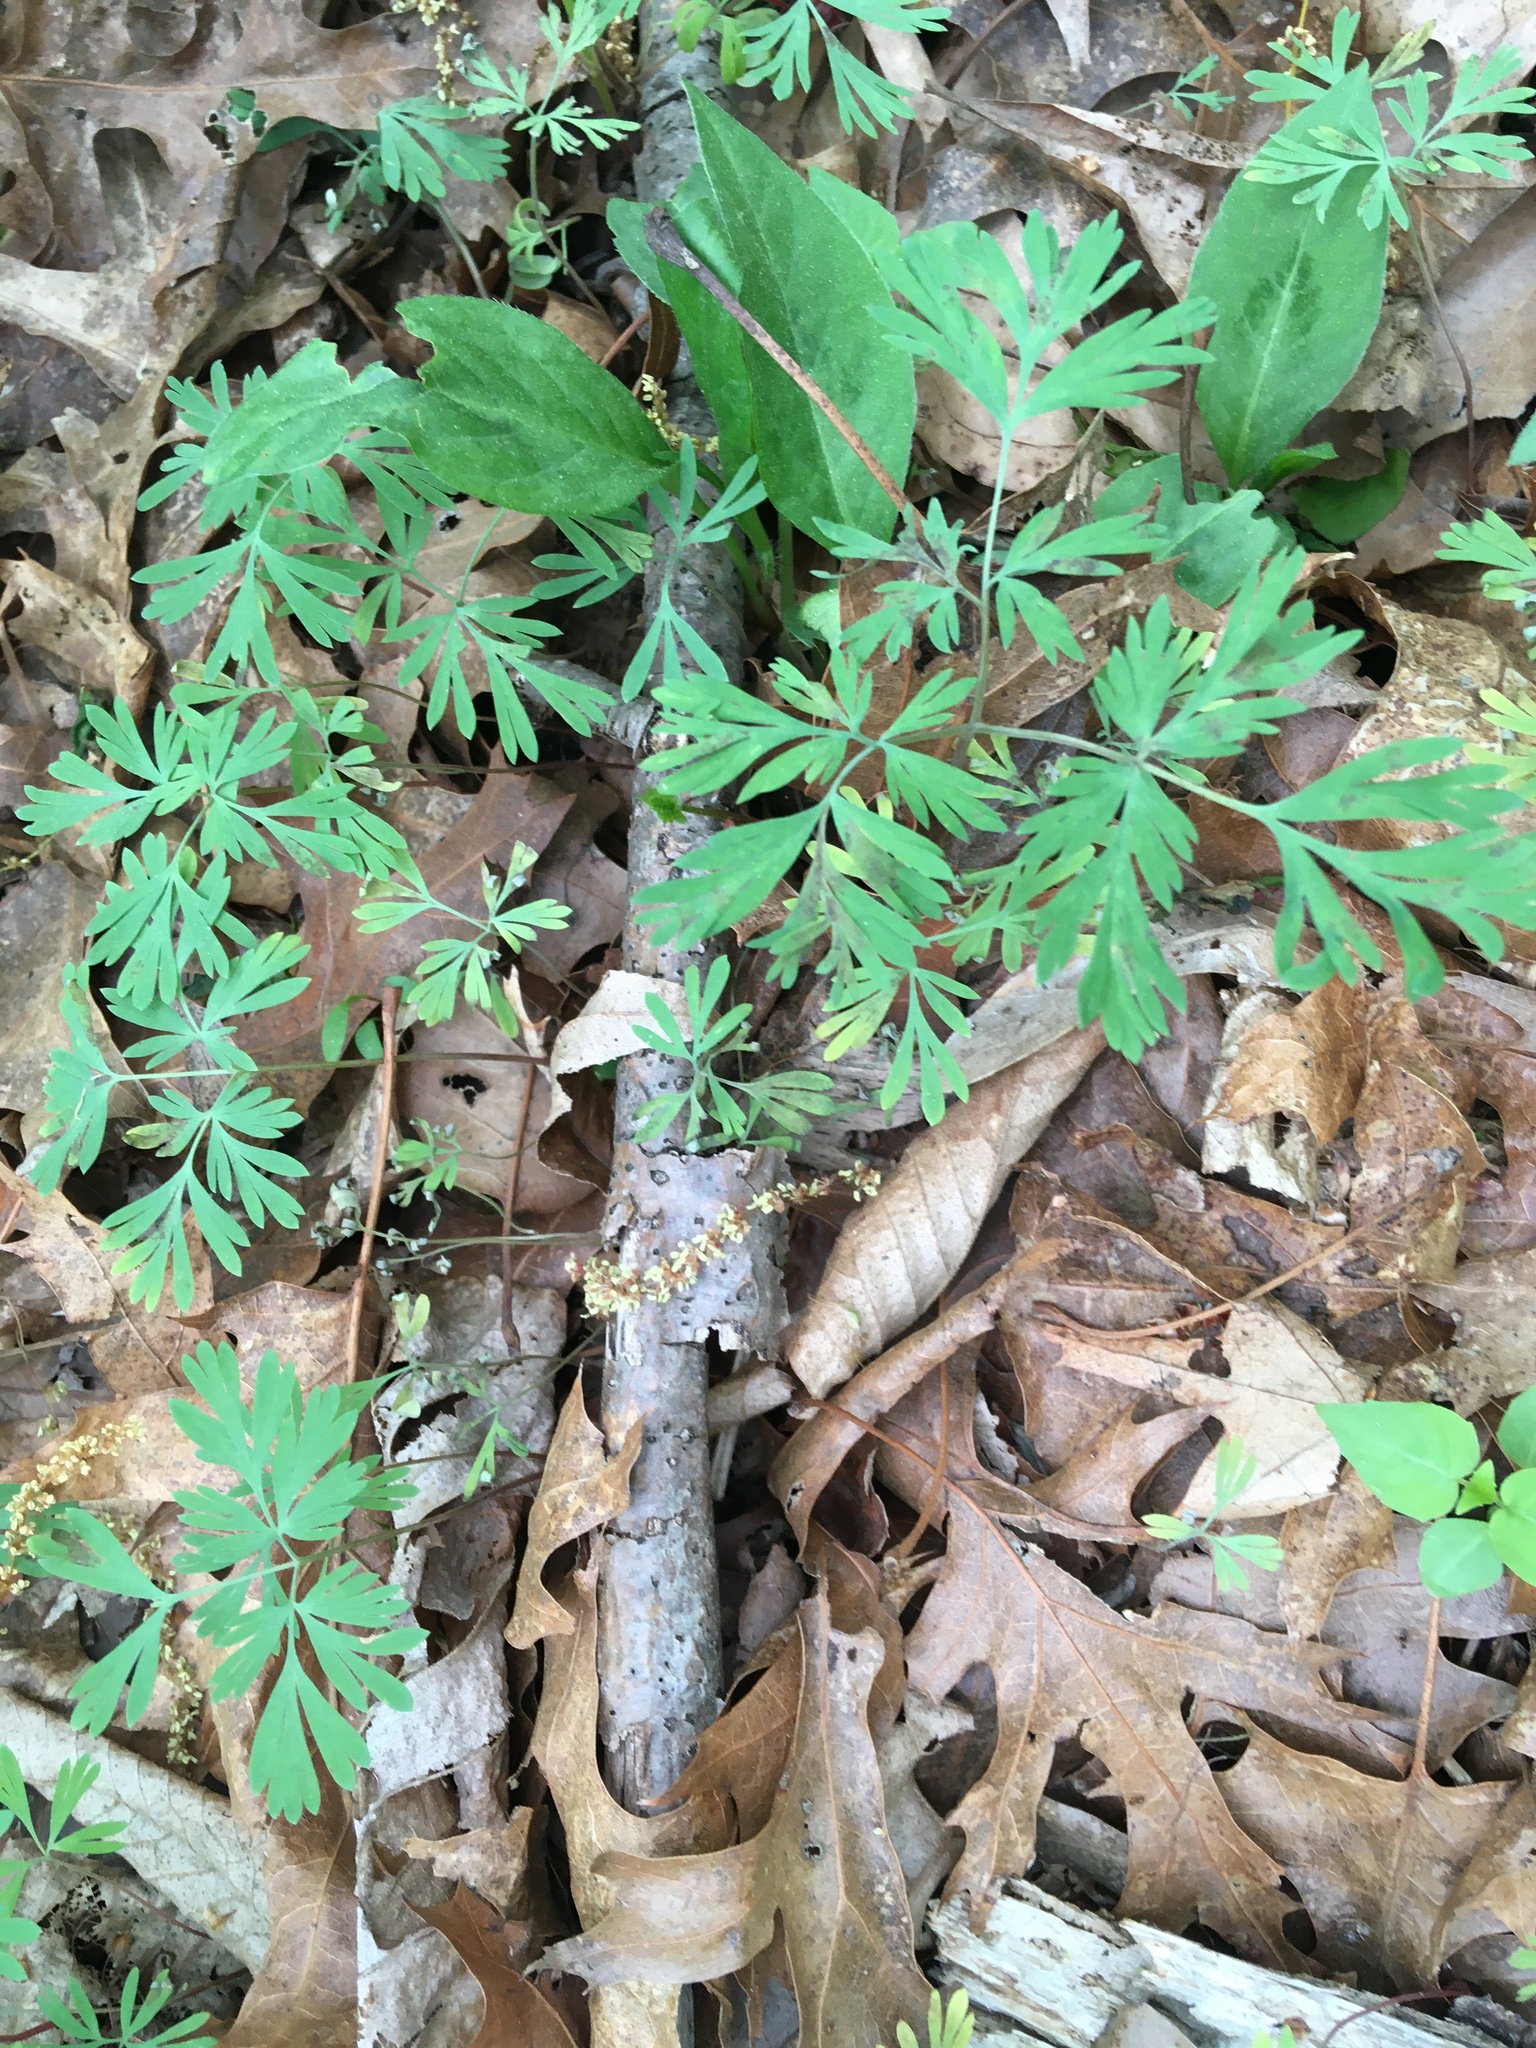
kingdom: Plantae
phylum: Tracheophyta
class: Magnoliopsida
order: Ranunculales
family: Papaveraceae
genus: Dicentra
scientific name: Dicentra cucullaria
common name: Dutchman's breeches
